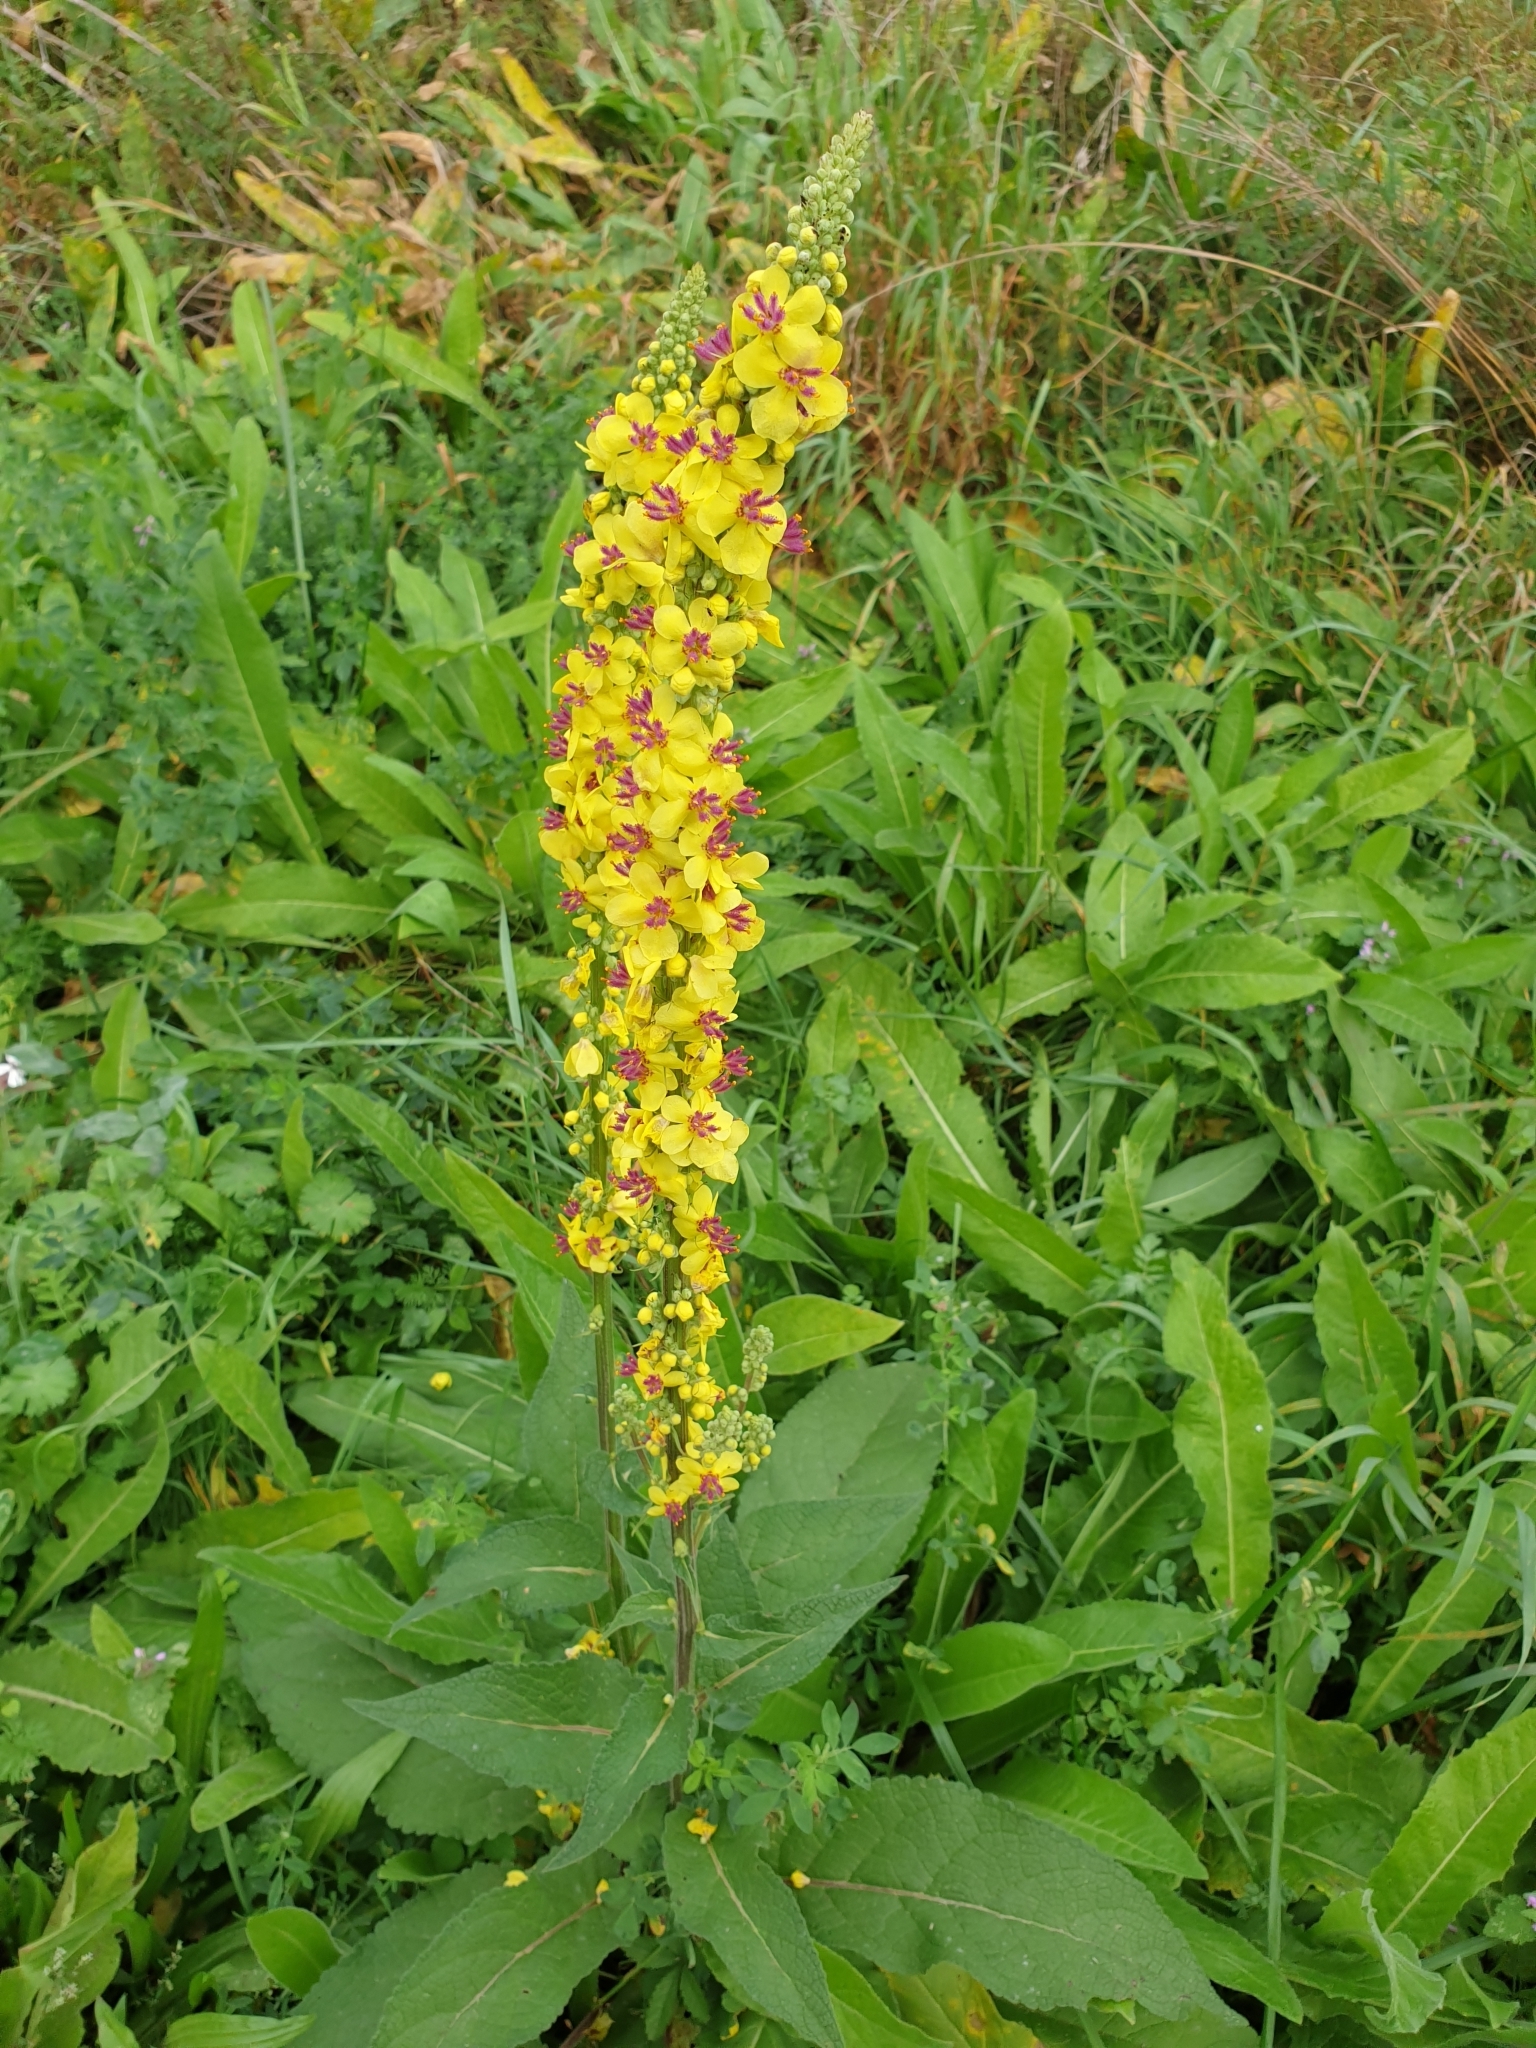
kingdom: Plantae
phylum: Tracheophyta
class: Magnoliopsida
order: Lamiales
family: Scrophulariaceae
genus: Verbascum
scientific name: Verbascum nigrum
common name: Dark mullein
